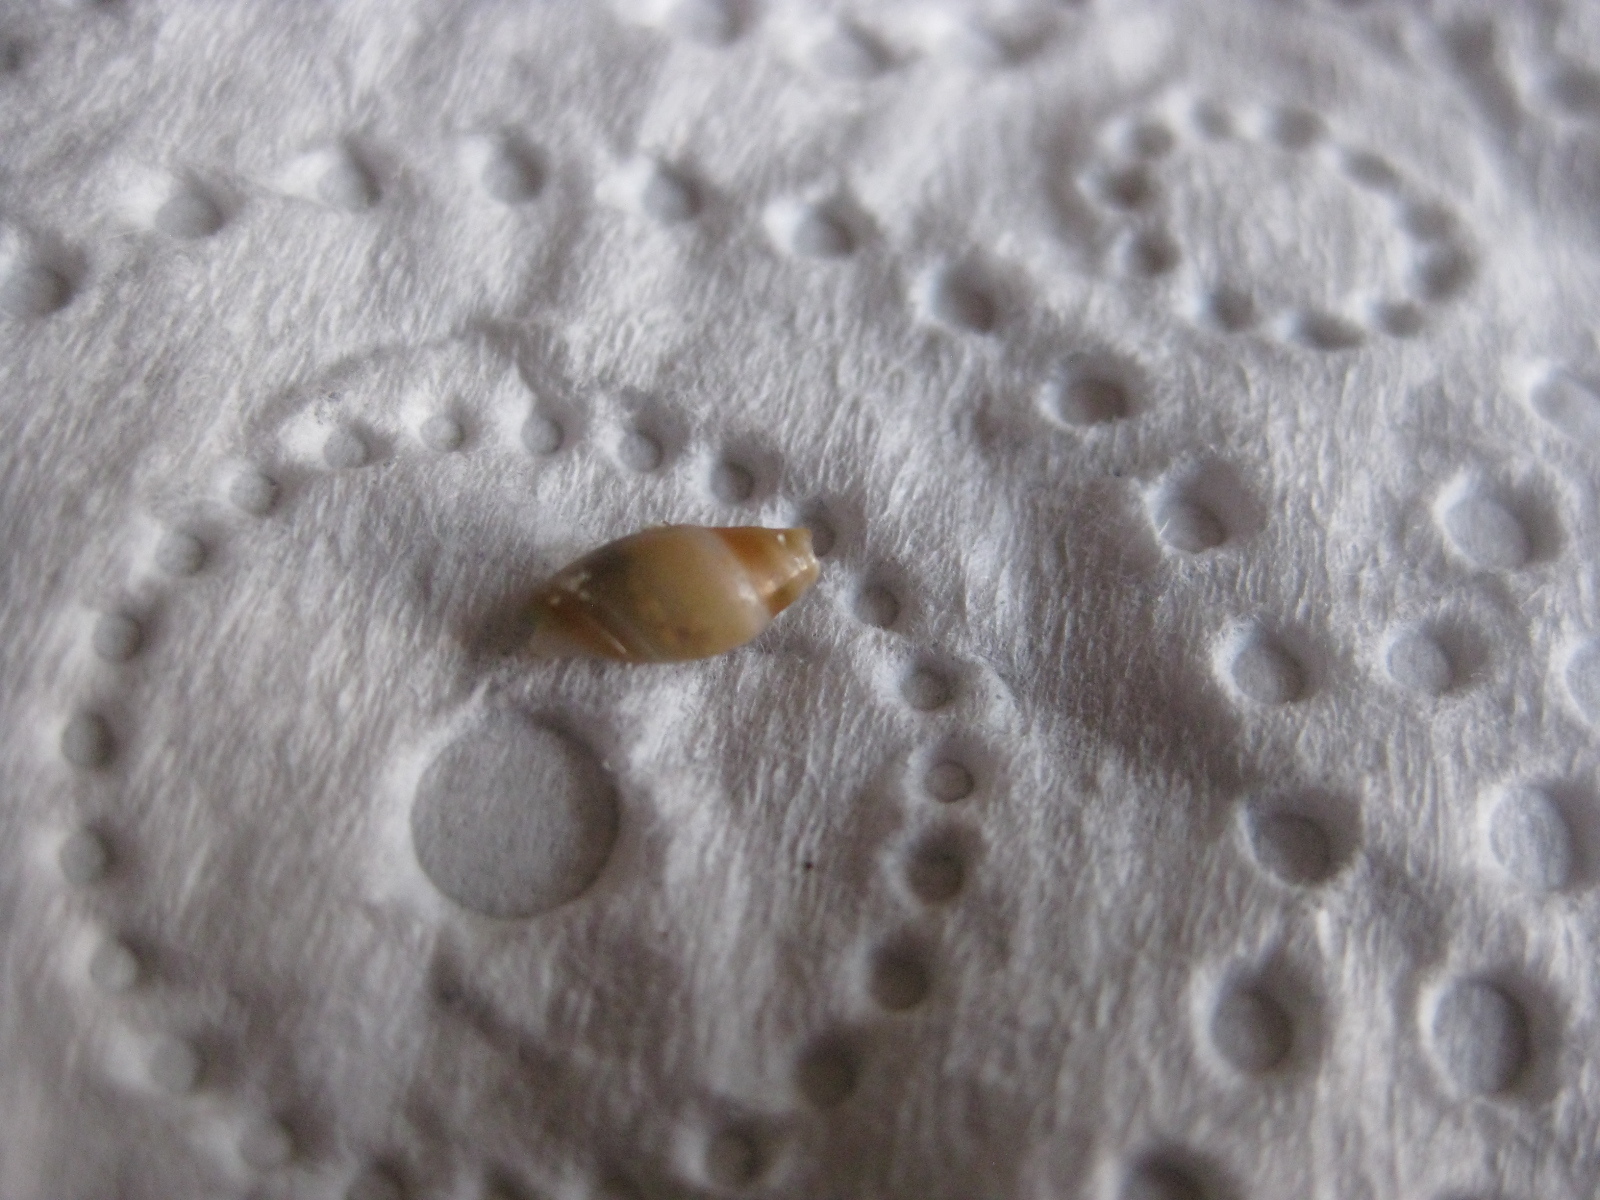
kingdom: Animalia
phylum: Mollusca
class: Gastropoda
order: Neogastropoda
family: Ancillariidae
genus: Amalda
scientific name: Amalda novaezelandiae
